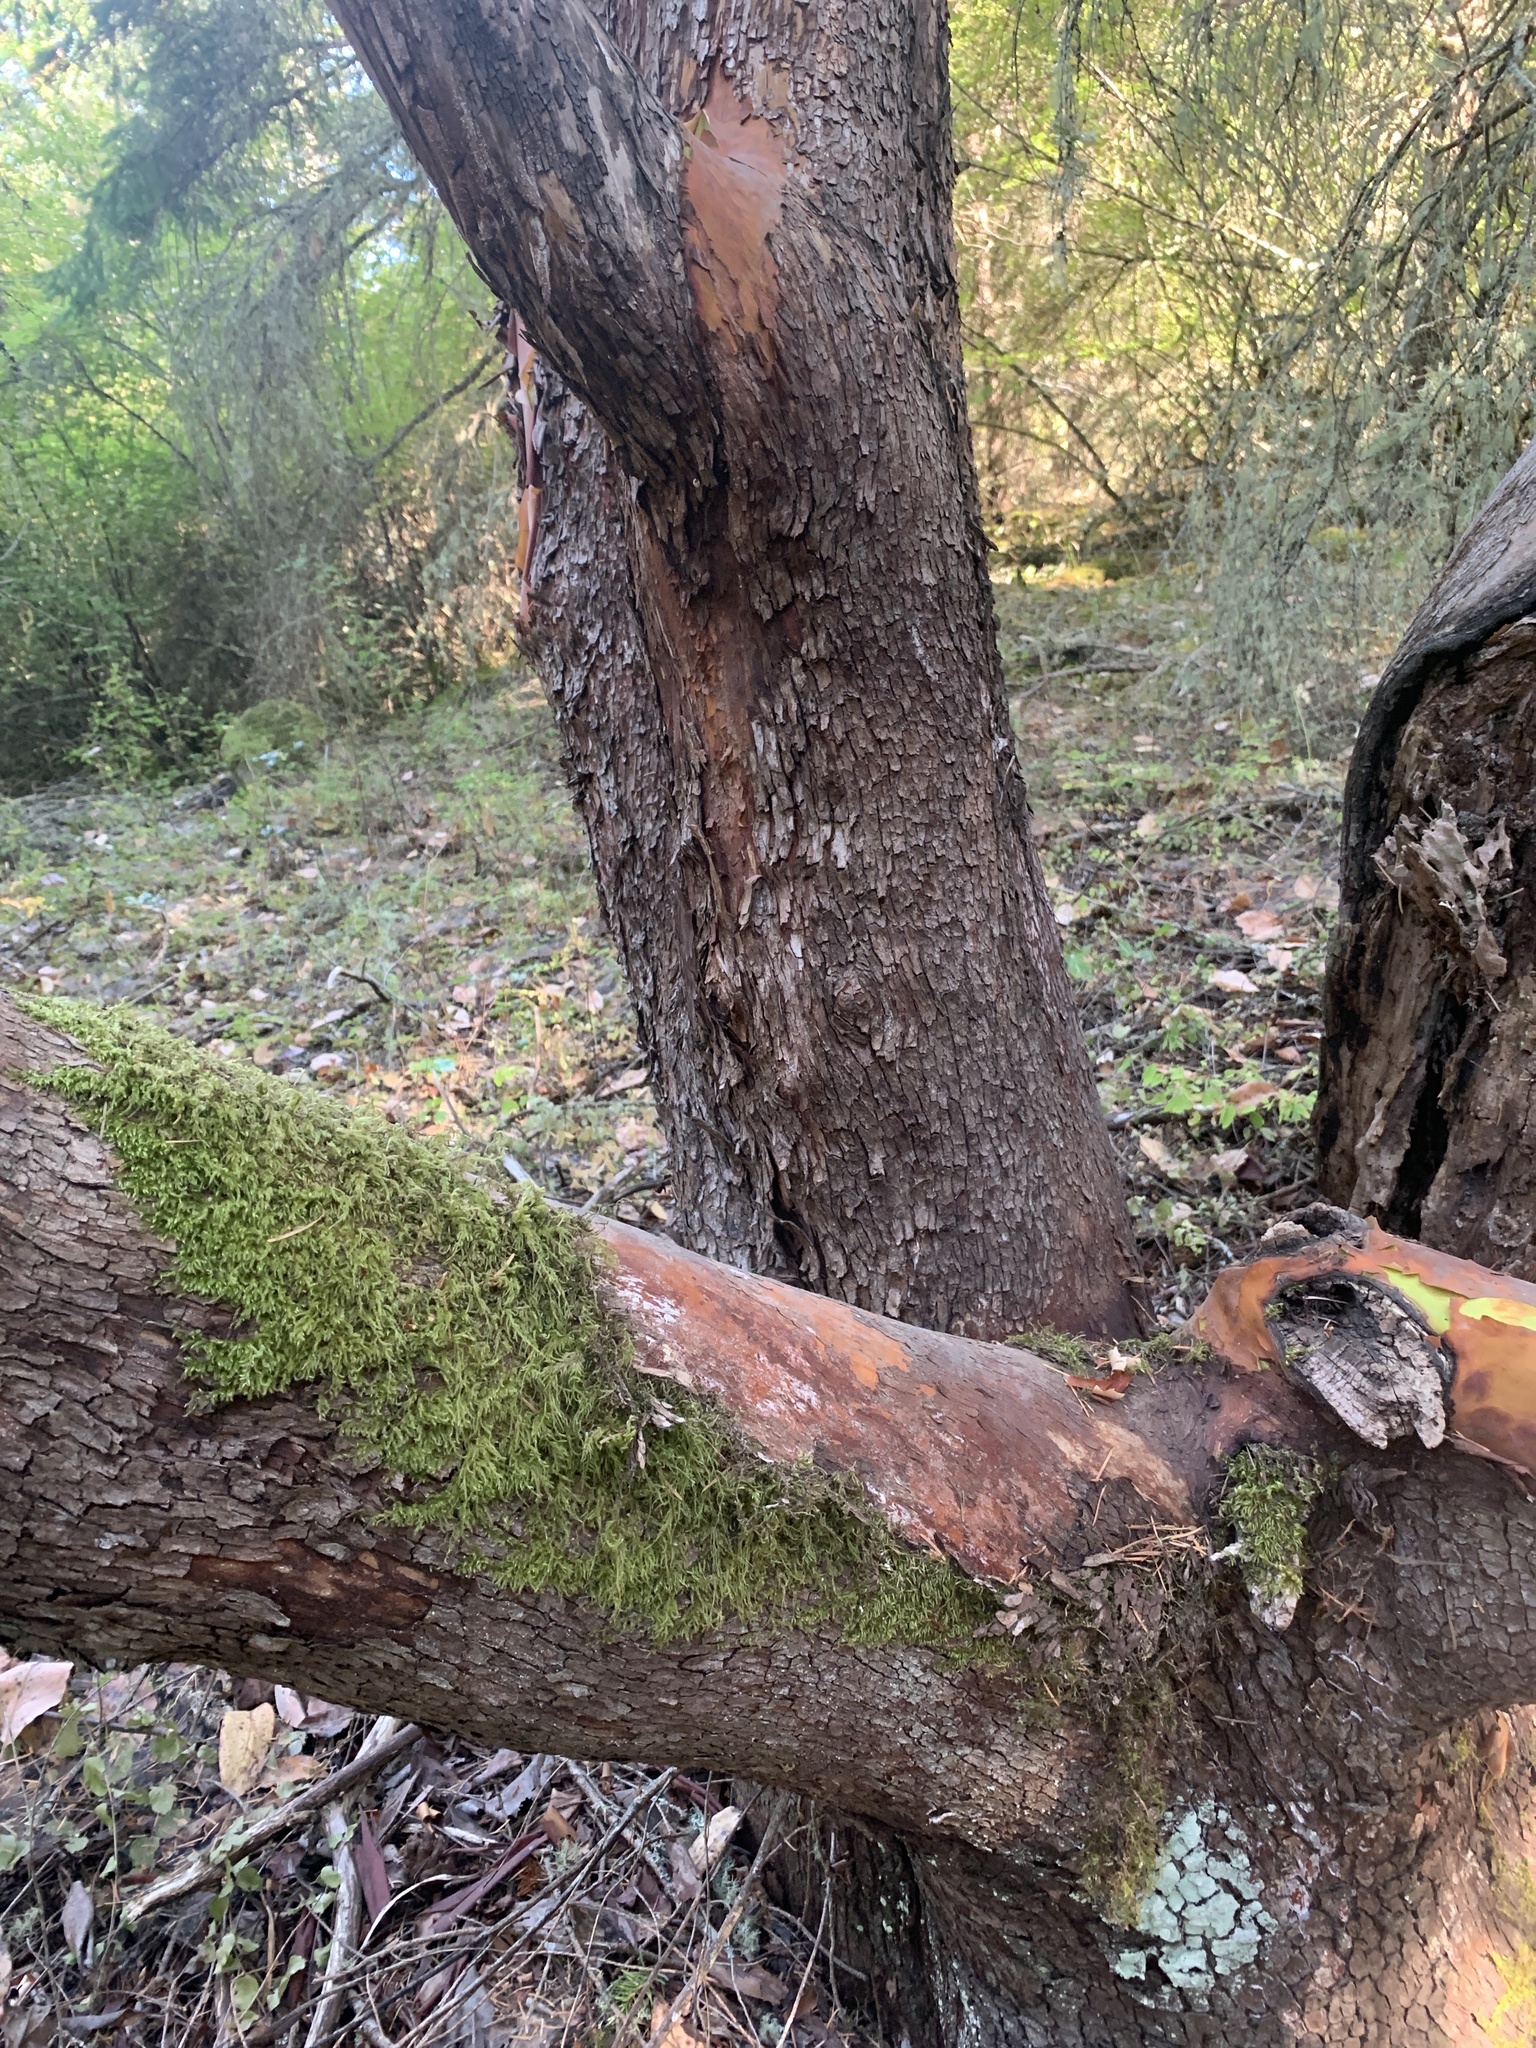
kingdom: Plantae
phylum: Tracheophyta
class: Magnoliopsida
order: Ericales
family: Ericaceae
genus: Arbutus
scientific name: Arbutus menziesii
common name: Pacific madrone
